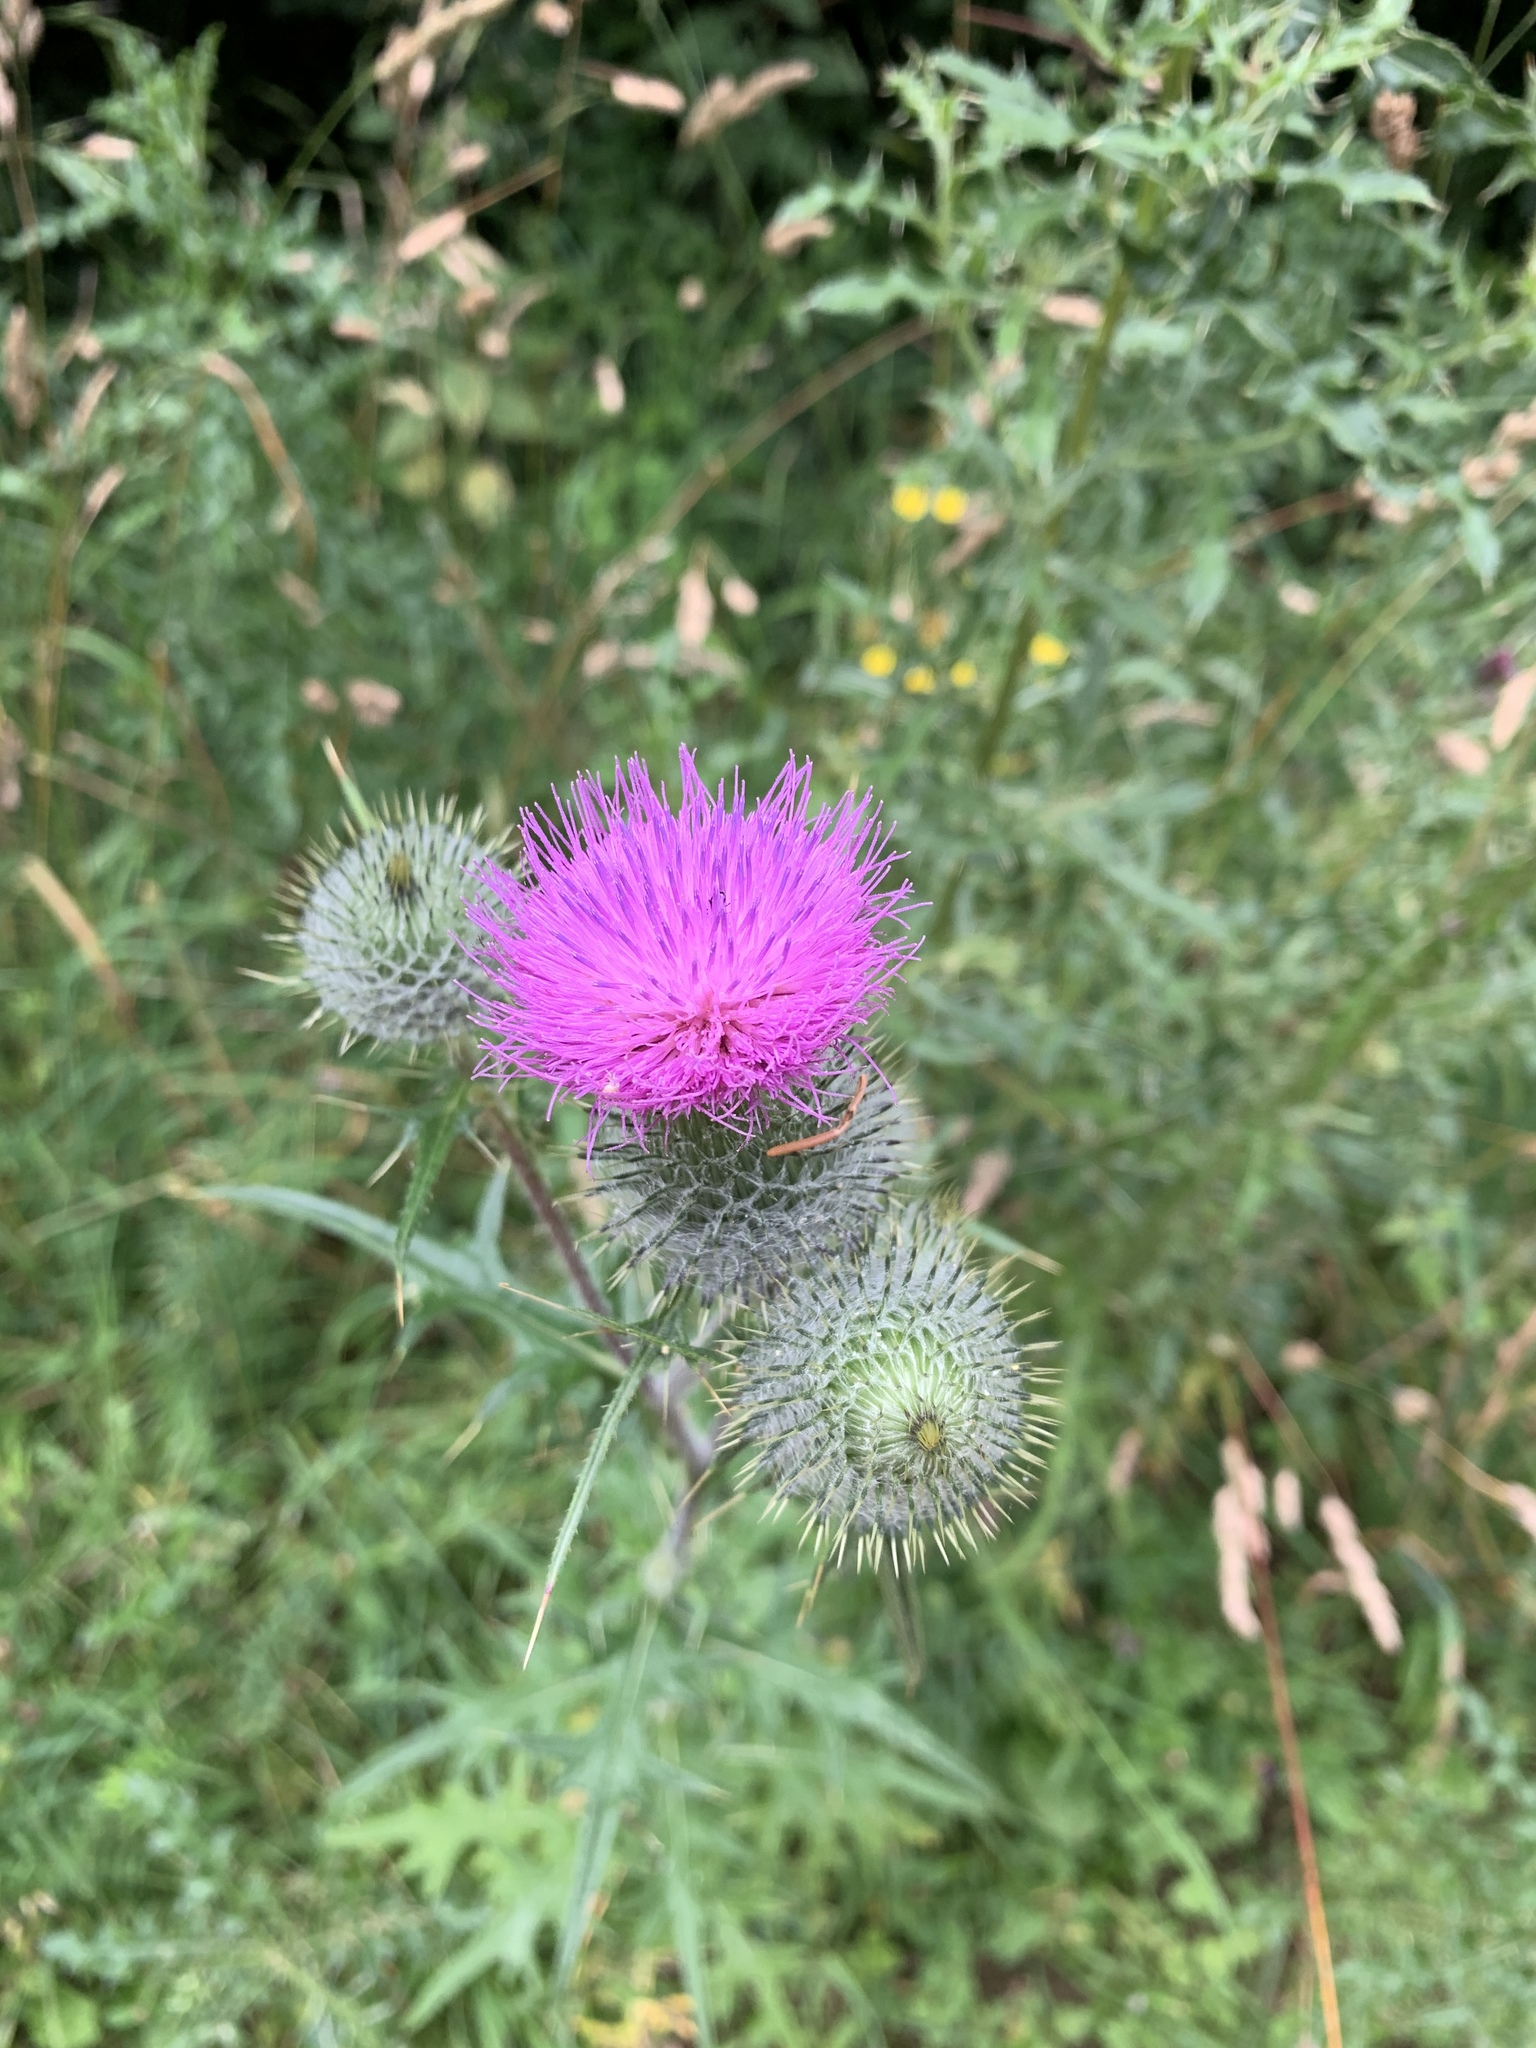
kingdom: Plantae
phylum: Tracheophyta
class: Magnoliopsida
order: Asterales
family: Asteraceae
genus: Cirsium
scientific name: Cirsium vulgare
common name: Bull thistle
